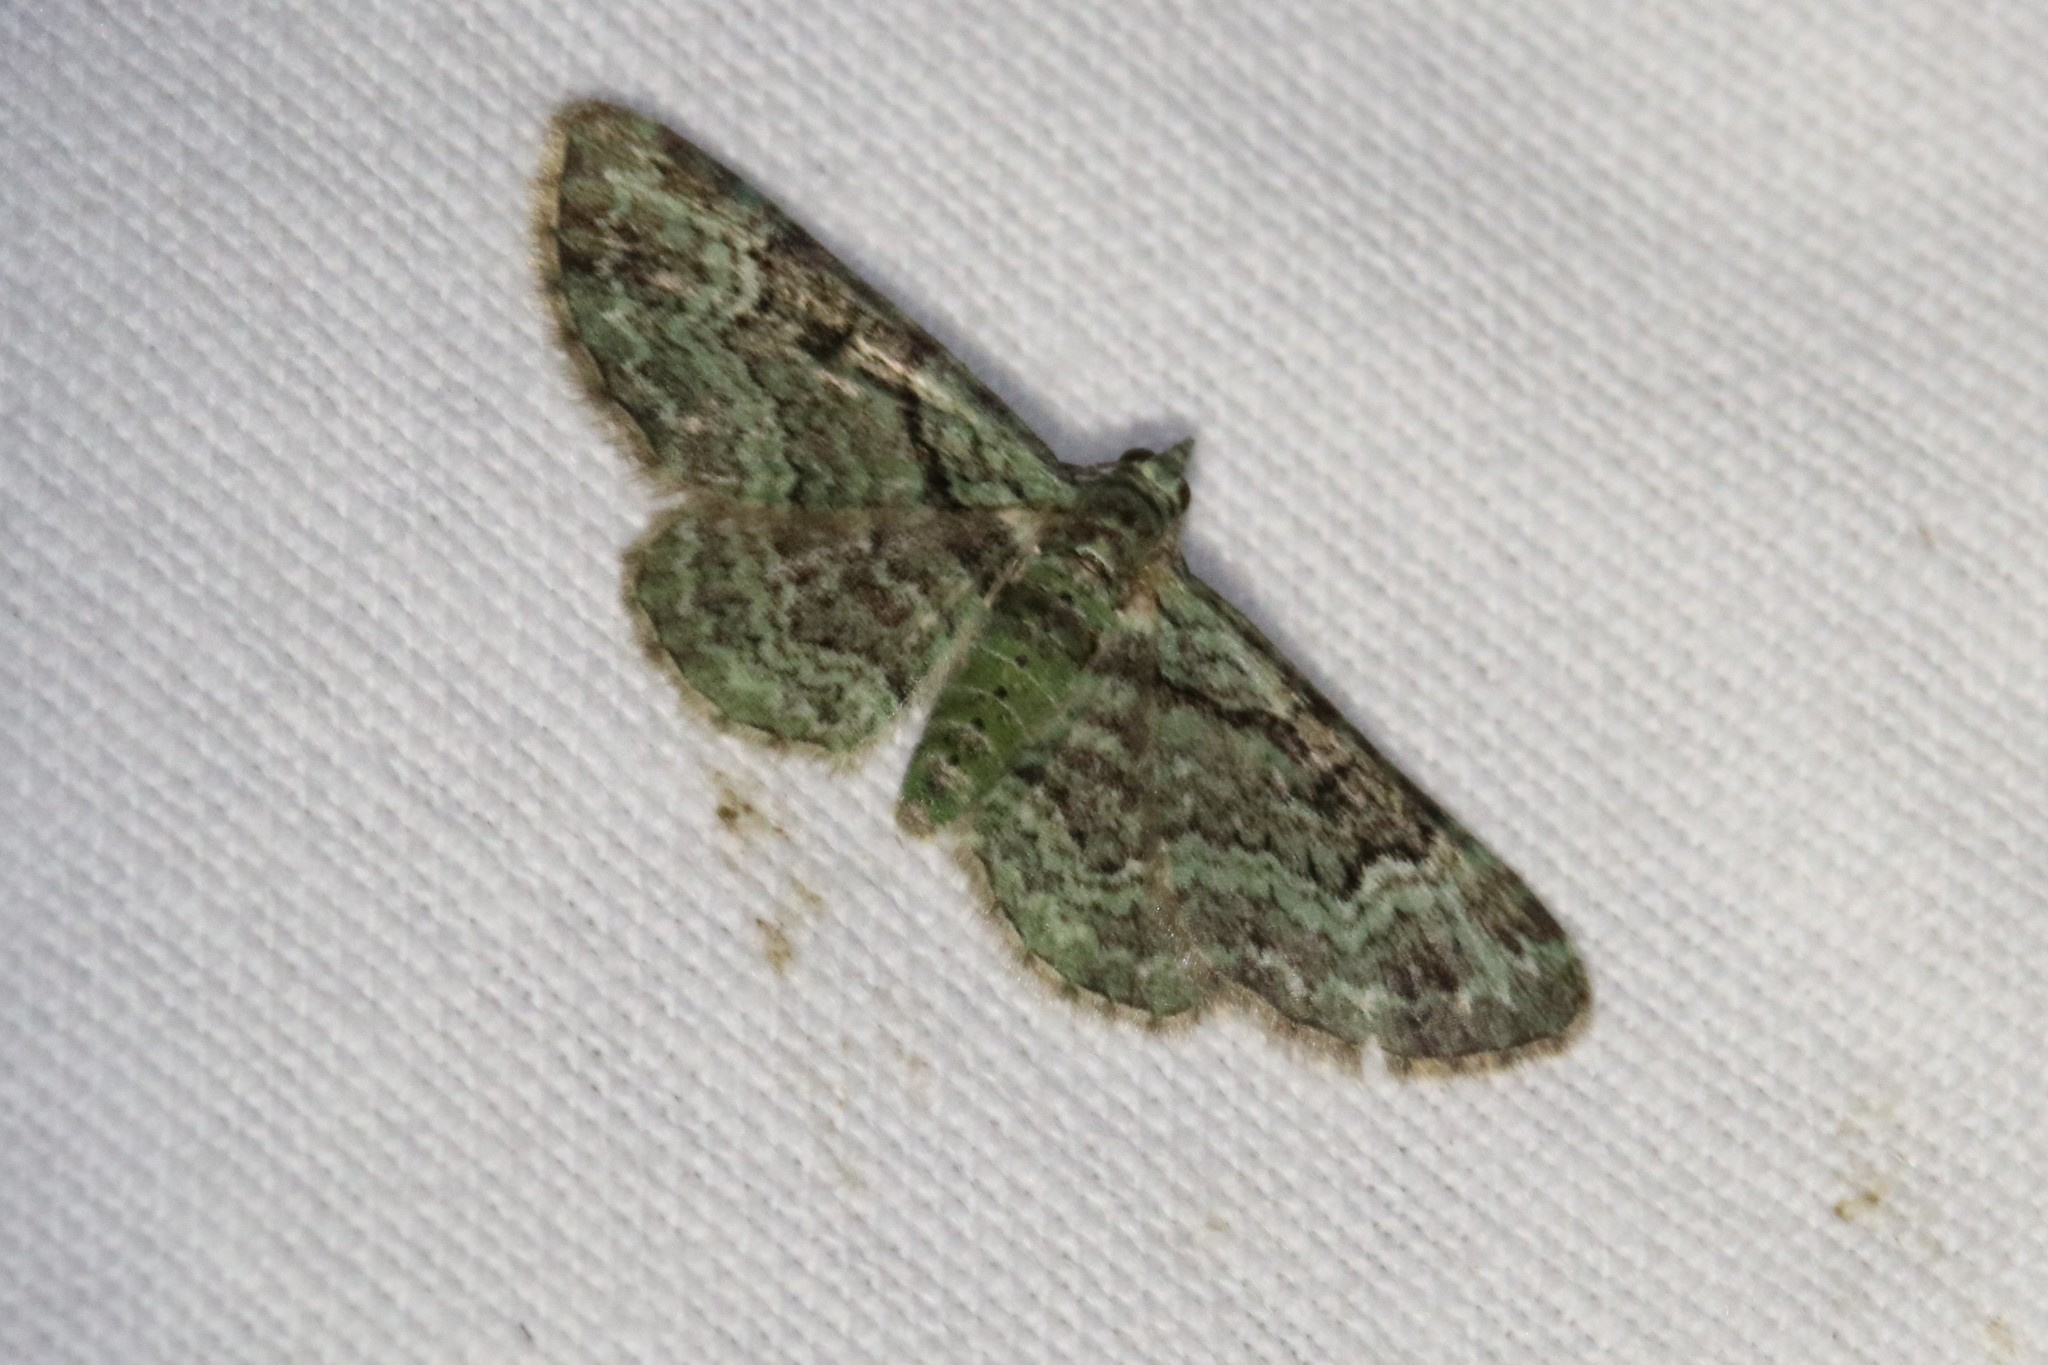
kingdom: Animalia
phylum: Arthropoda
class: Insecta
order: Lepidoptera
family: Geometridae
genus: Pasiphila
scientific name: Pasiphila rectangulata
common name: Green pug
